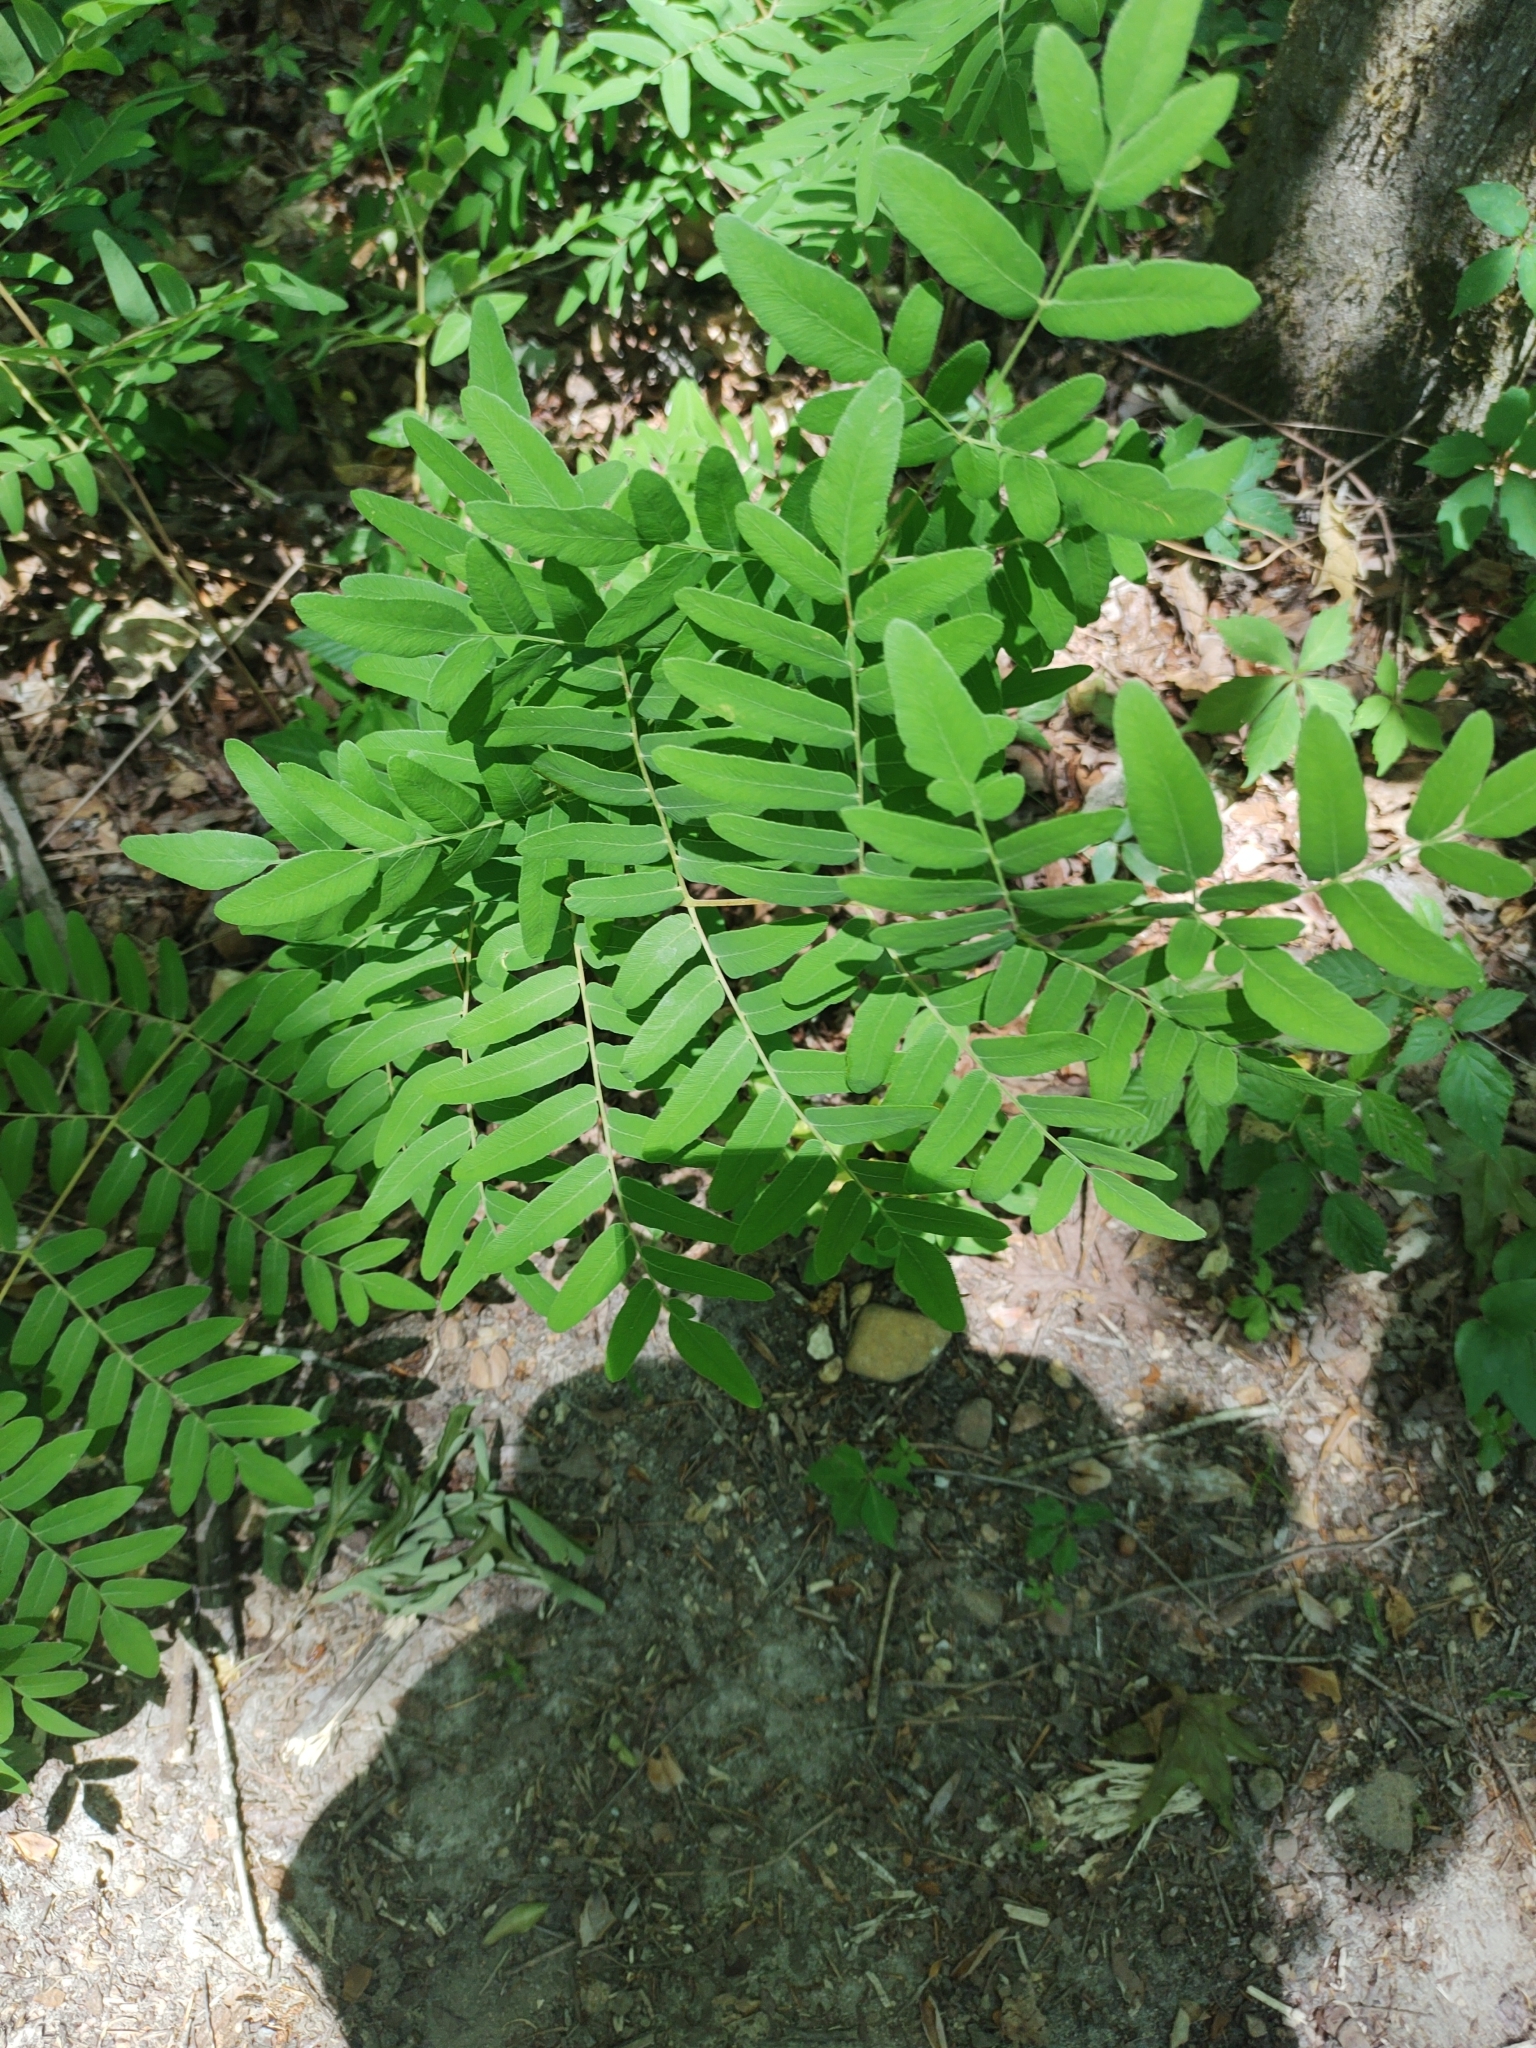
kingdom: Plantae
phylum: Tracheophyta
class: Polypodiopsida
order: Osmundales
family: Osmundaceae
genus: Osmunda
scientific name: Osmunda spectabilis
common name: American royal fern
